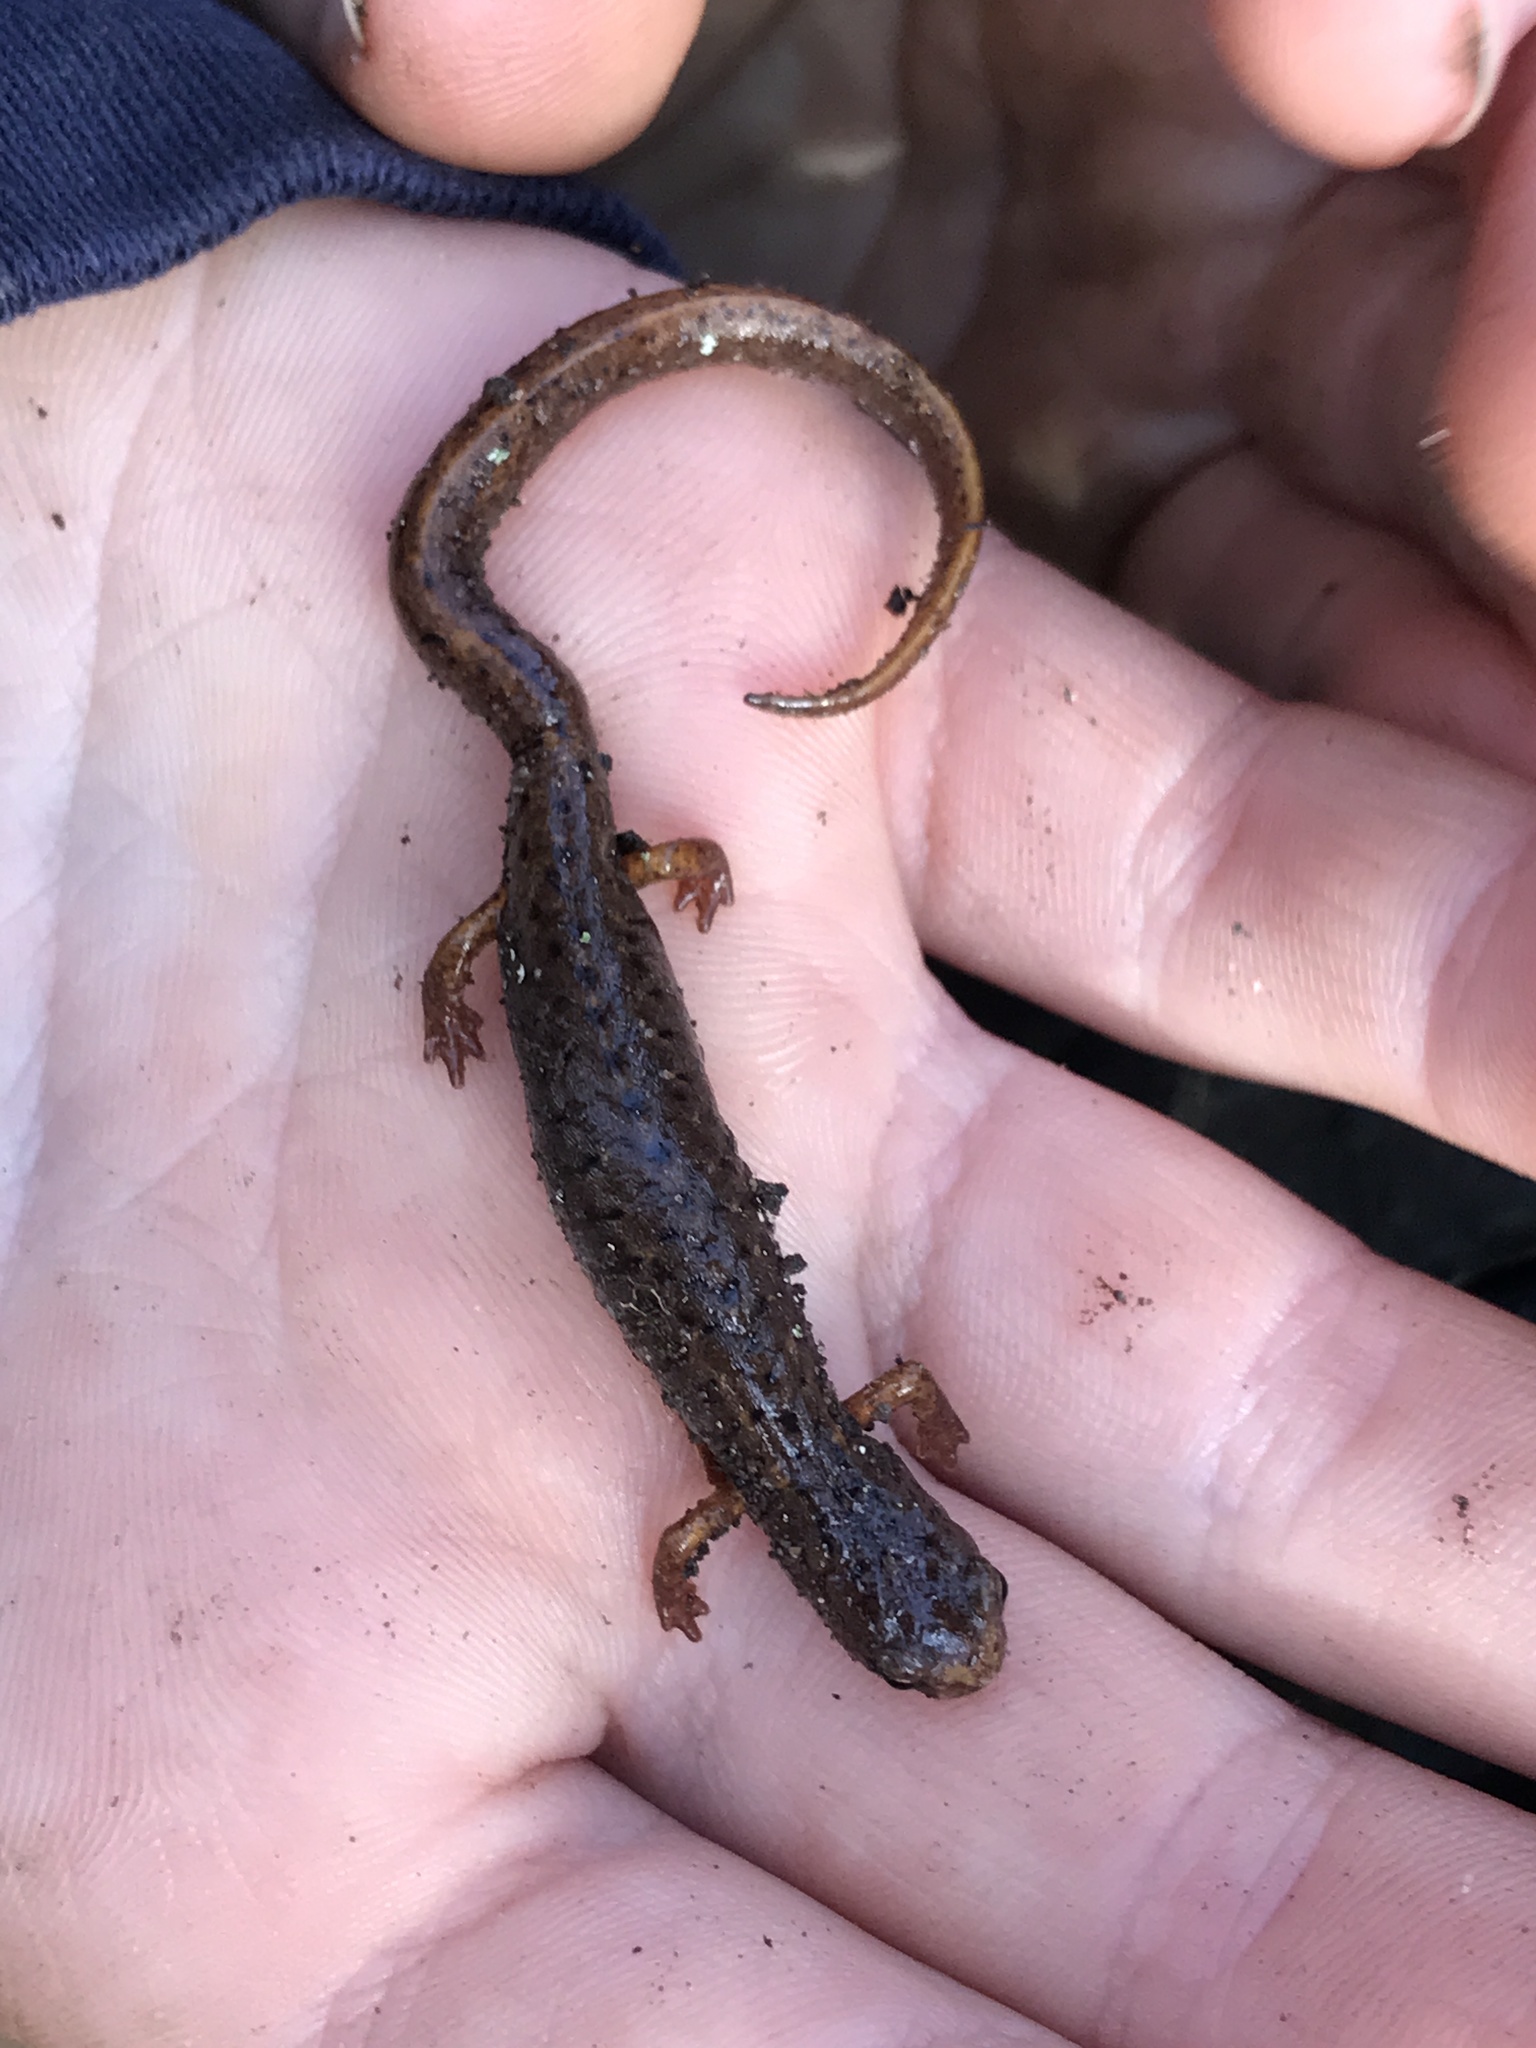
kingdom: Animalia
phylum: Chordata
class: Amphibia
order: Caudata
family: Plethodontidae
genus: Hemidactylium
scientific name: Hemidactylium scutatum
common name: Four-toed salamander
